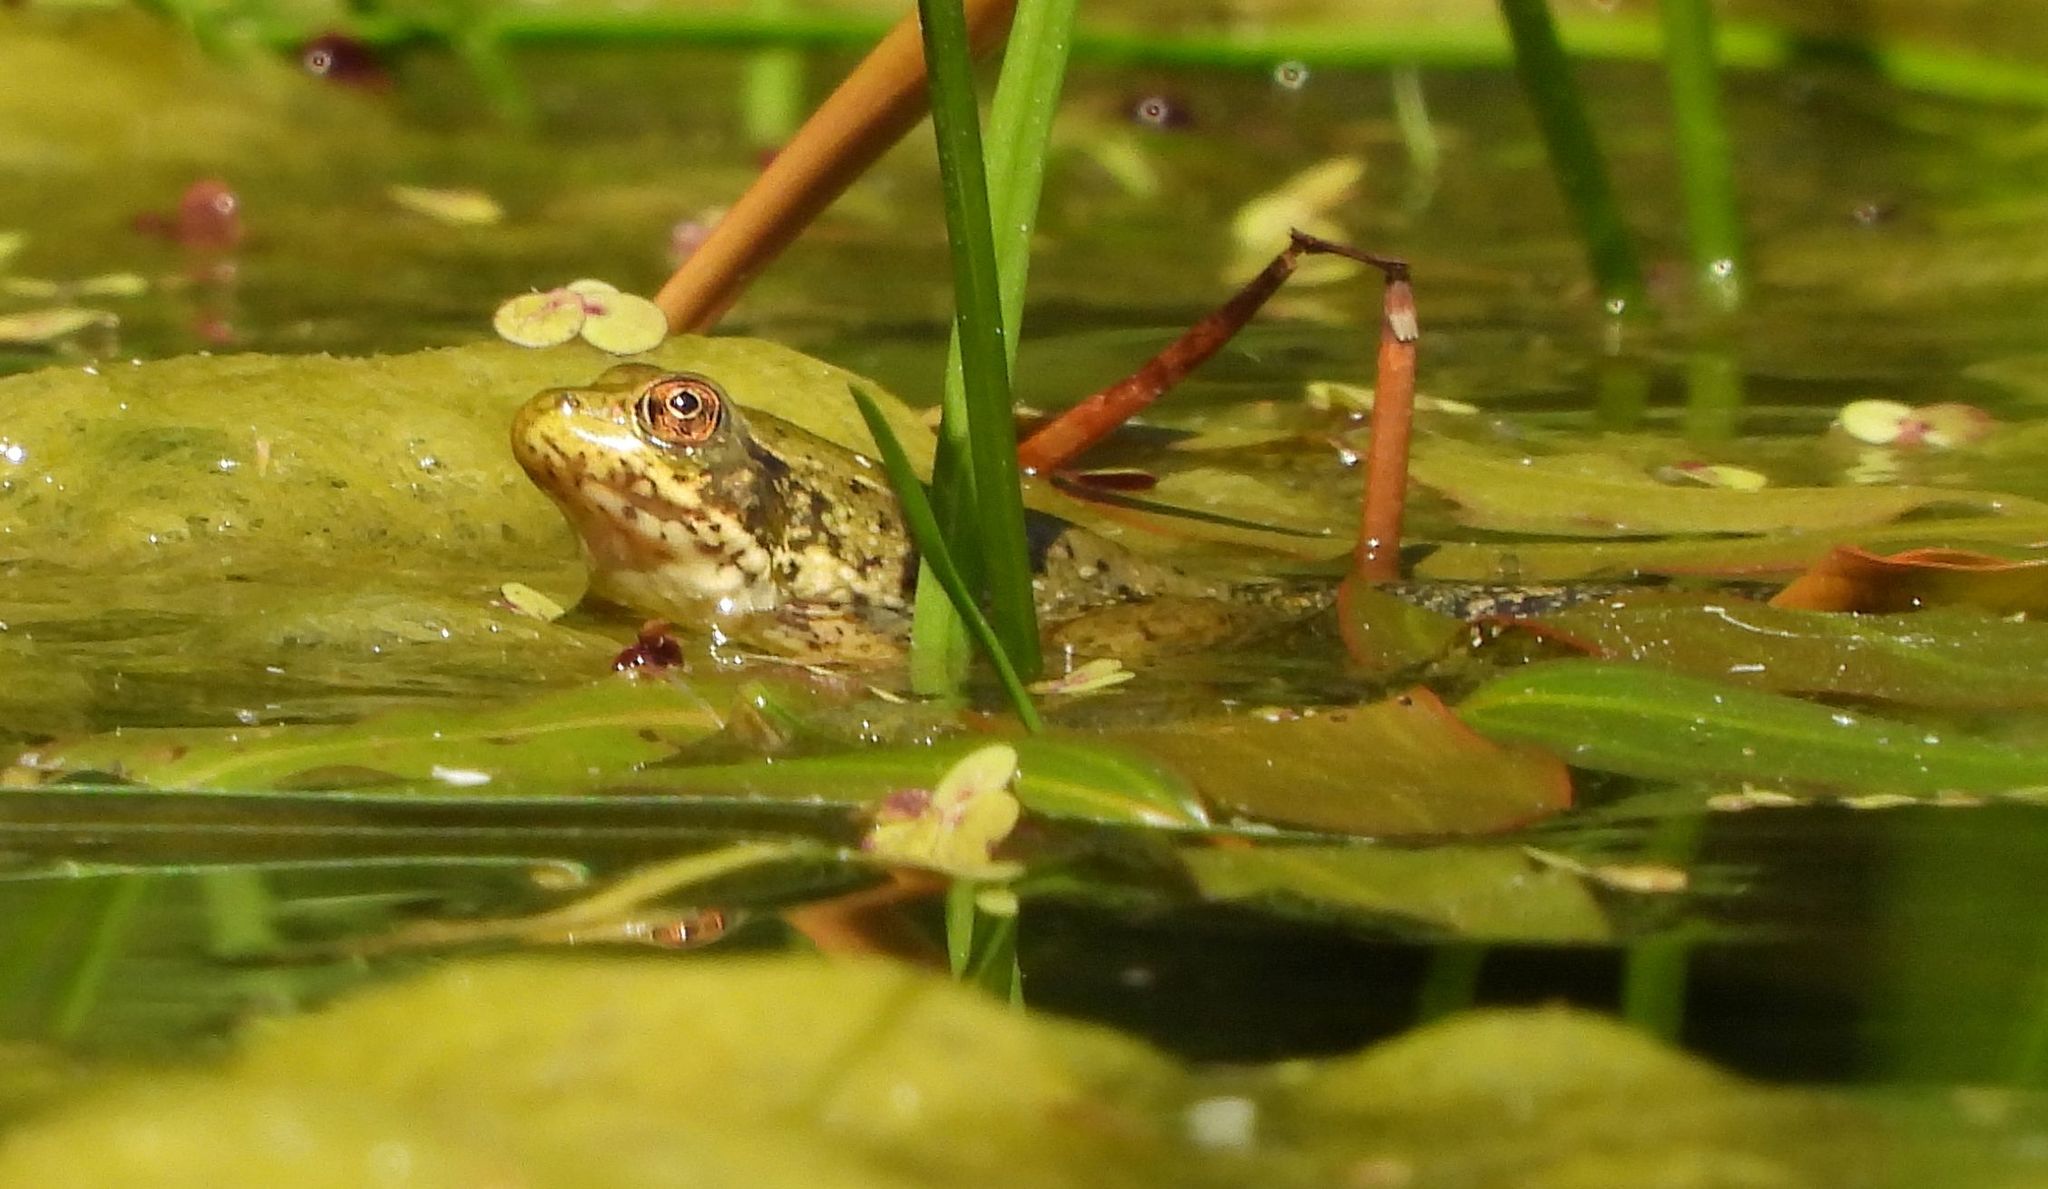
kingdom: Animalia
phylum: Chordata
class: Amphibia
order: Anura
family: Ranidae
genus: Lithobates
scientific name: Lithobates clamitans
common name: Green frog
